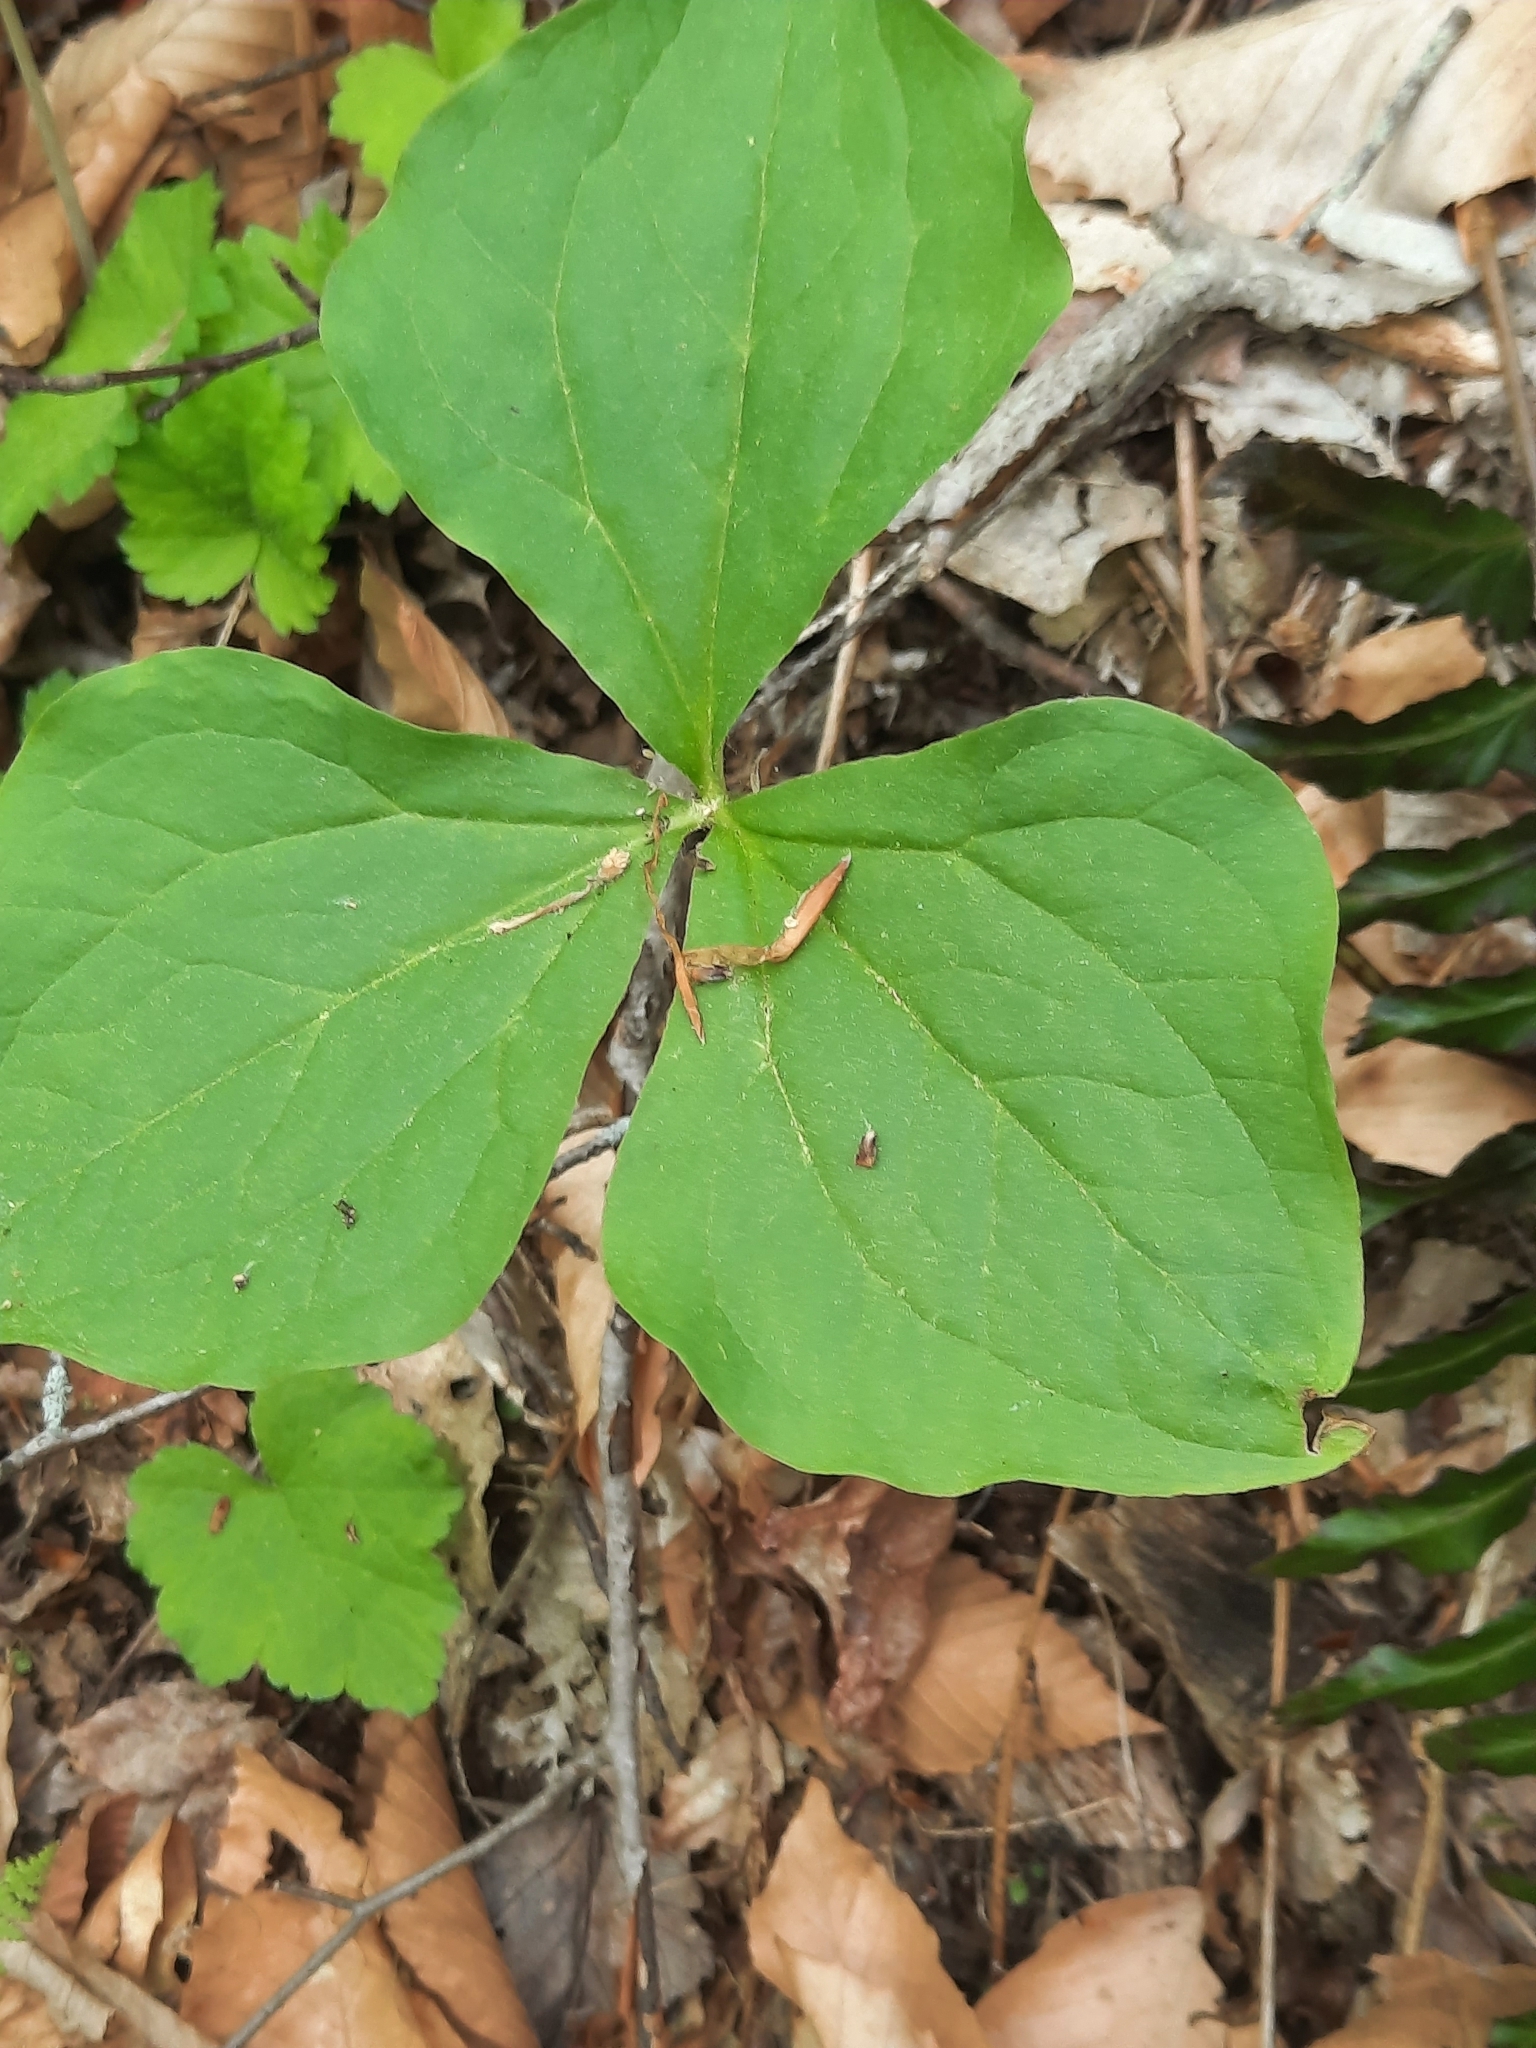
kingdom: Plantae
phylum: Tracheophyta
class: Liliopsida
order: Liliales
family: Melanthiaceae
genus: Trillium
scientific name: Trillium erectum
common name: Purple trillium
